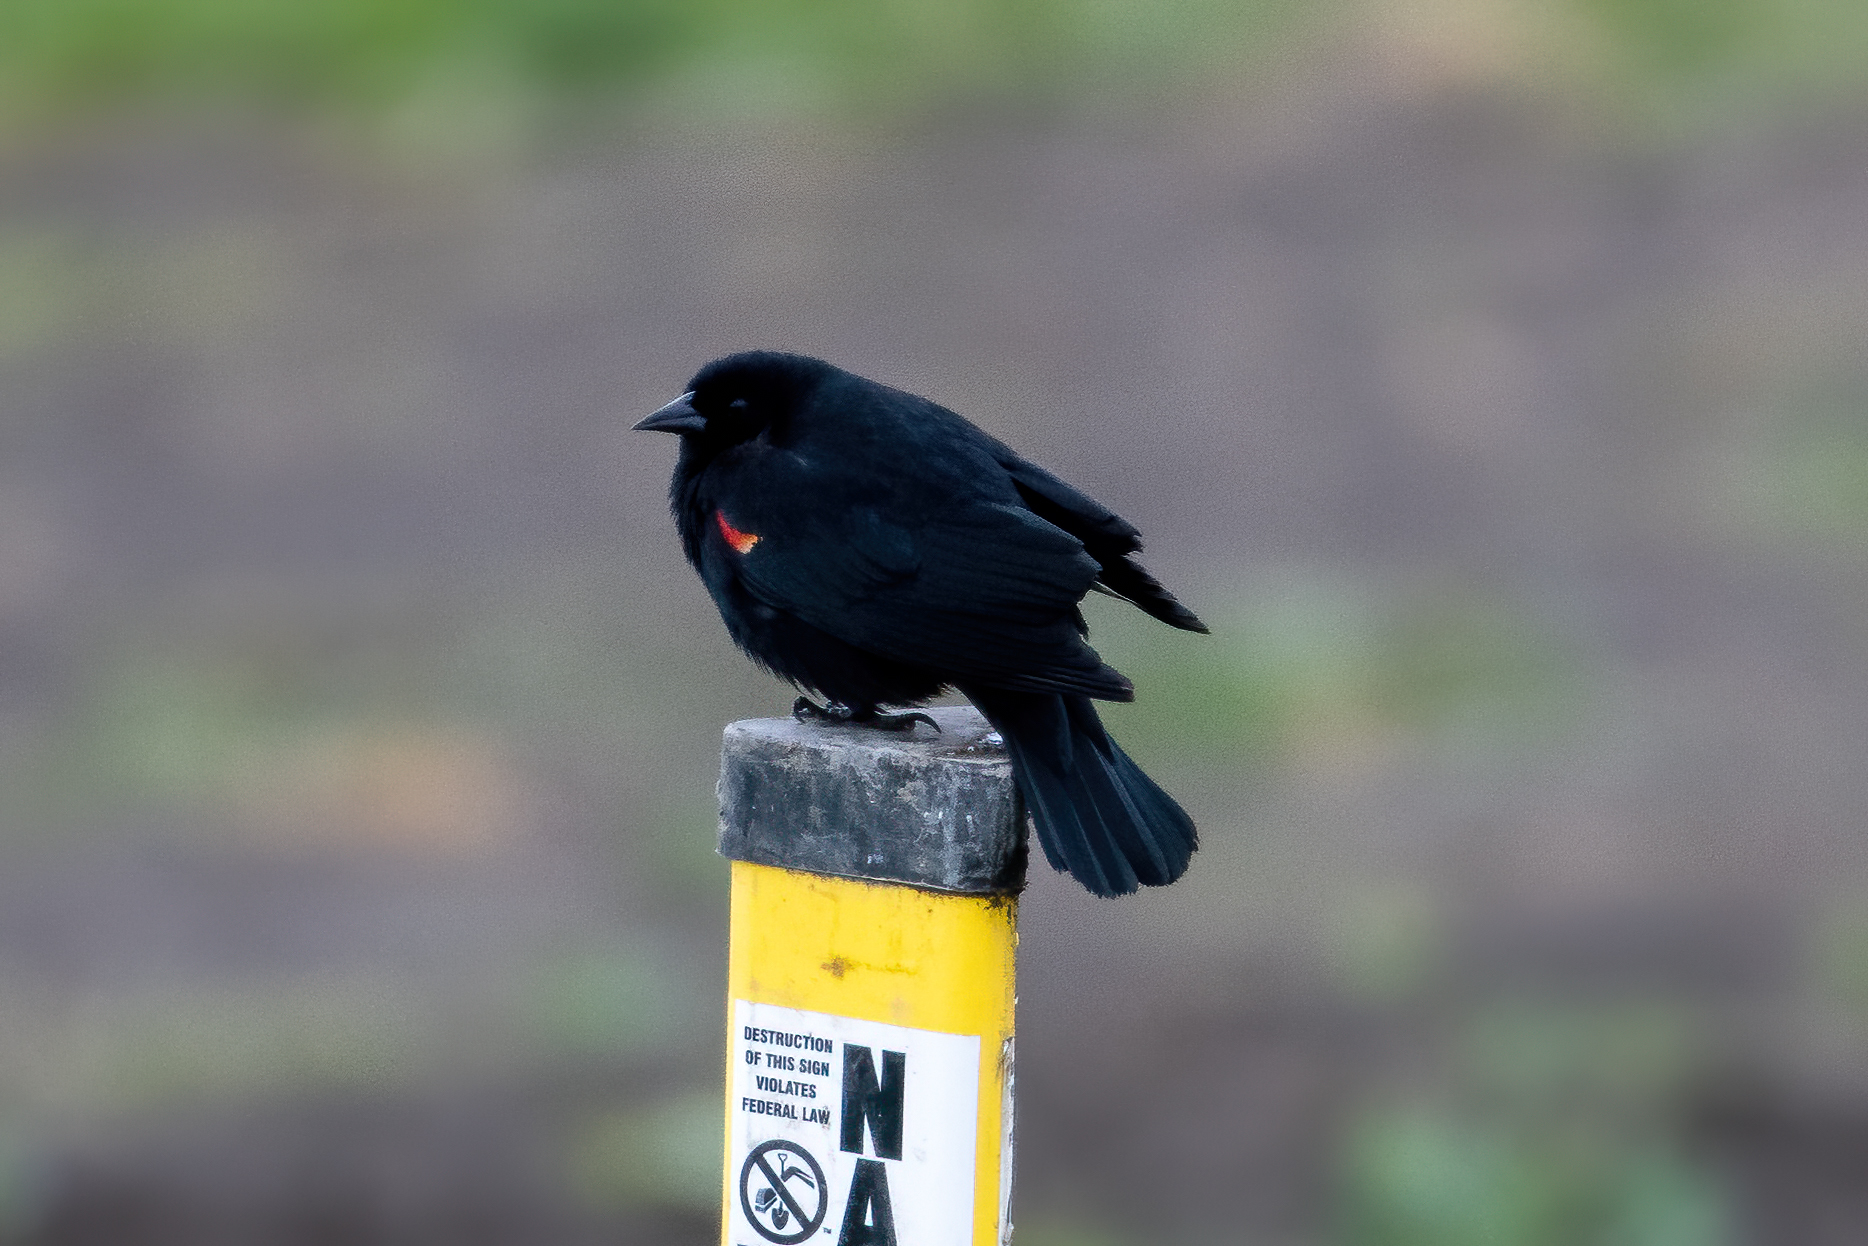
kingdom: Animalia
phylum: Chordata
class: Aves
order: Passeriformes
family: Icteridae
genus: Agelaius
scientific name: Agelaius phoeniceus
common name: Red-winged blackbird
